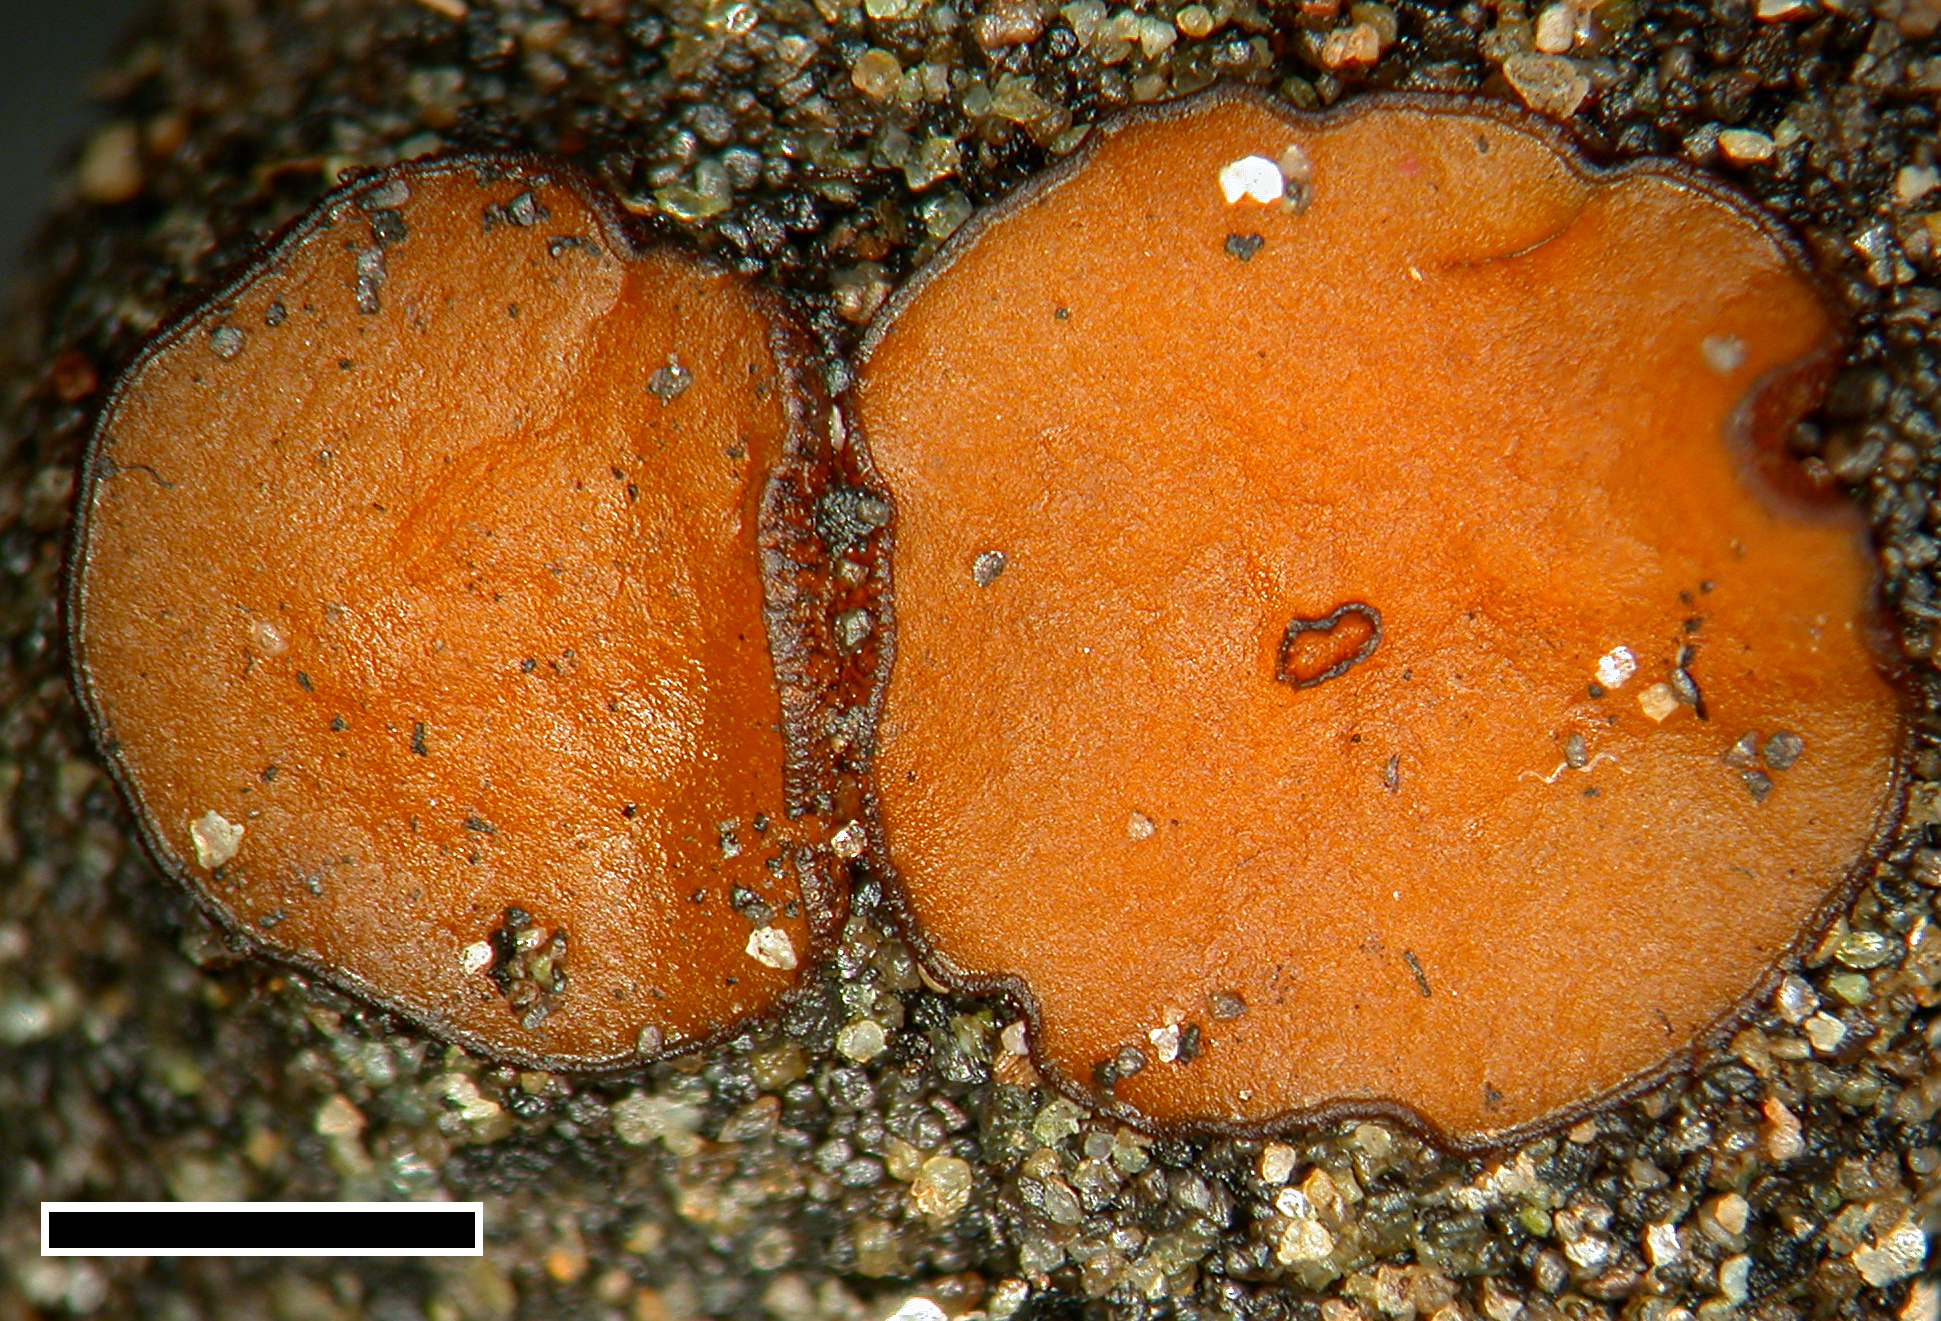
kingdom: Fungi
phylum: Ascomycota
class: Pezizomycetes
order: Pezizales
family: Pyronemataceae
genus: Anthracobia
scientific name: Anthracobia melaloma
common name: Charcoal eyelash
